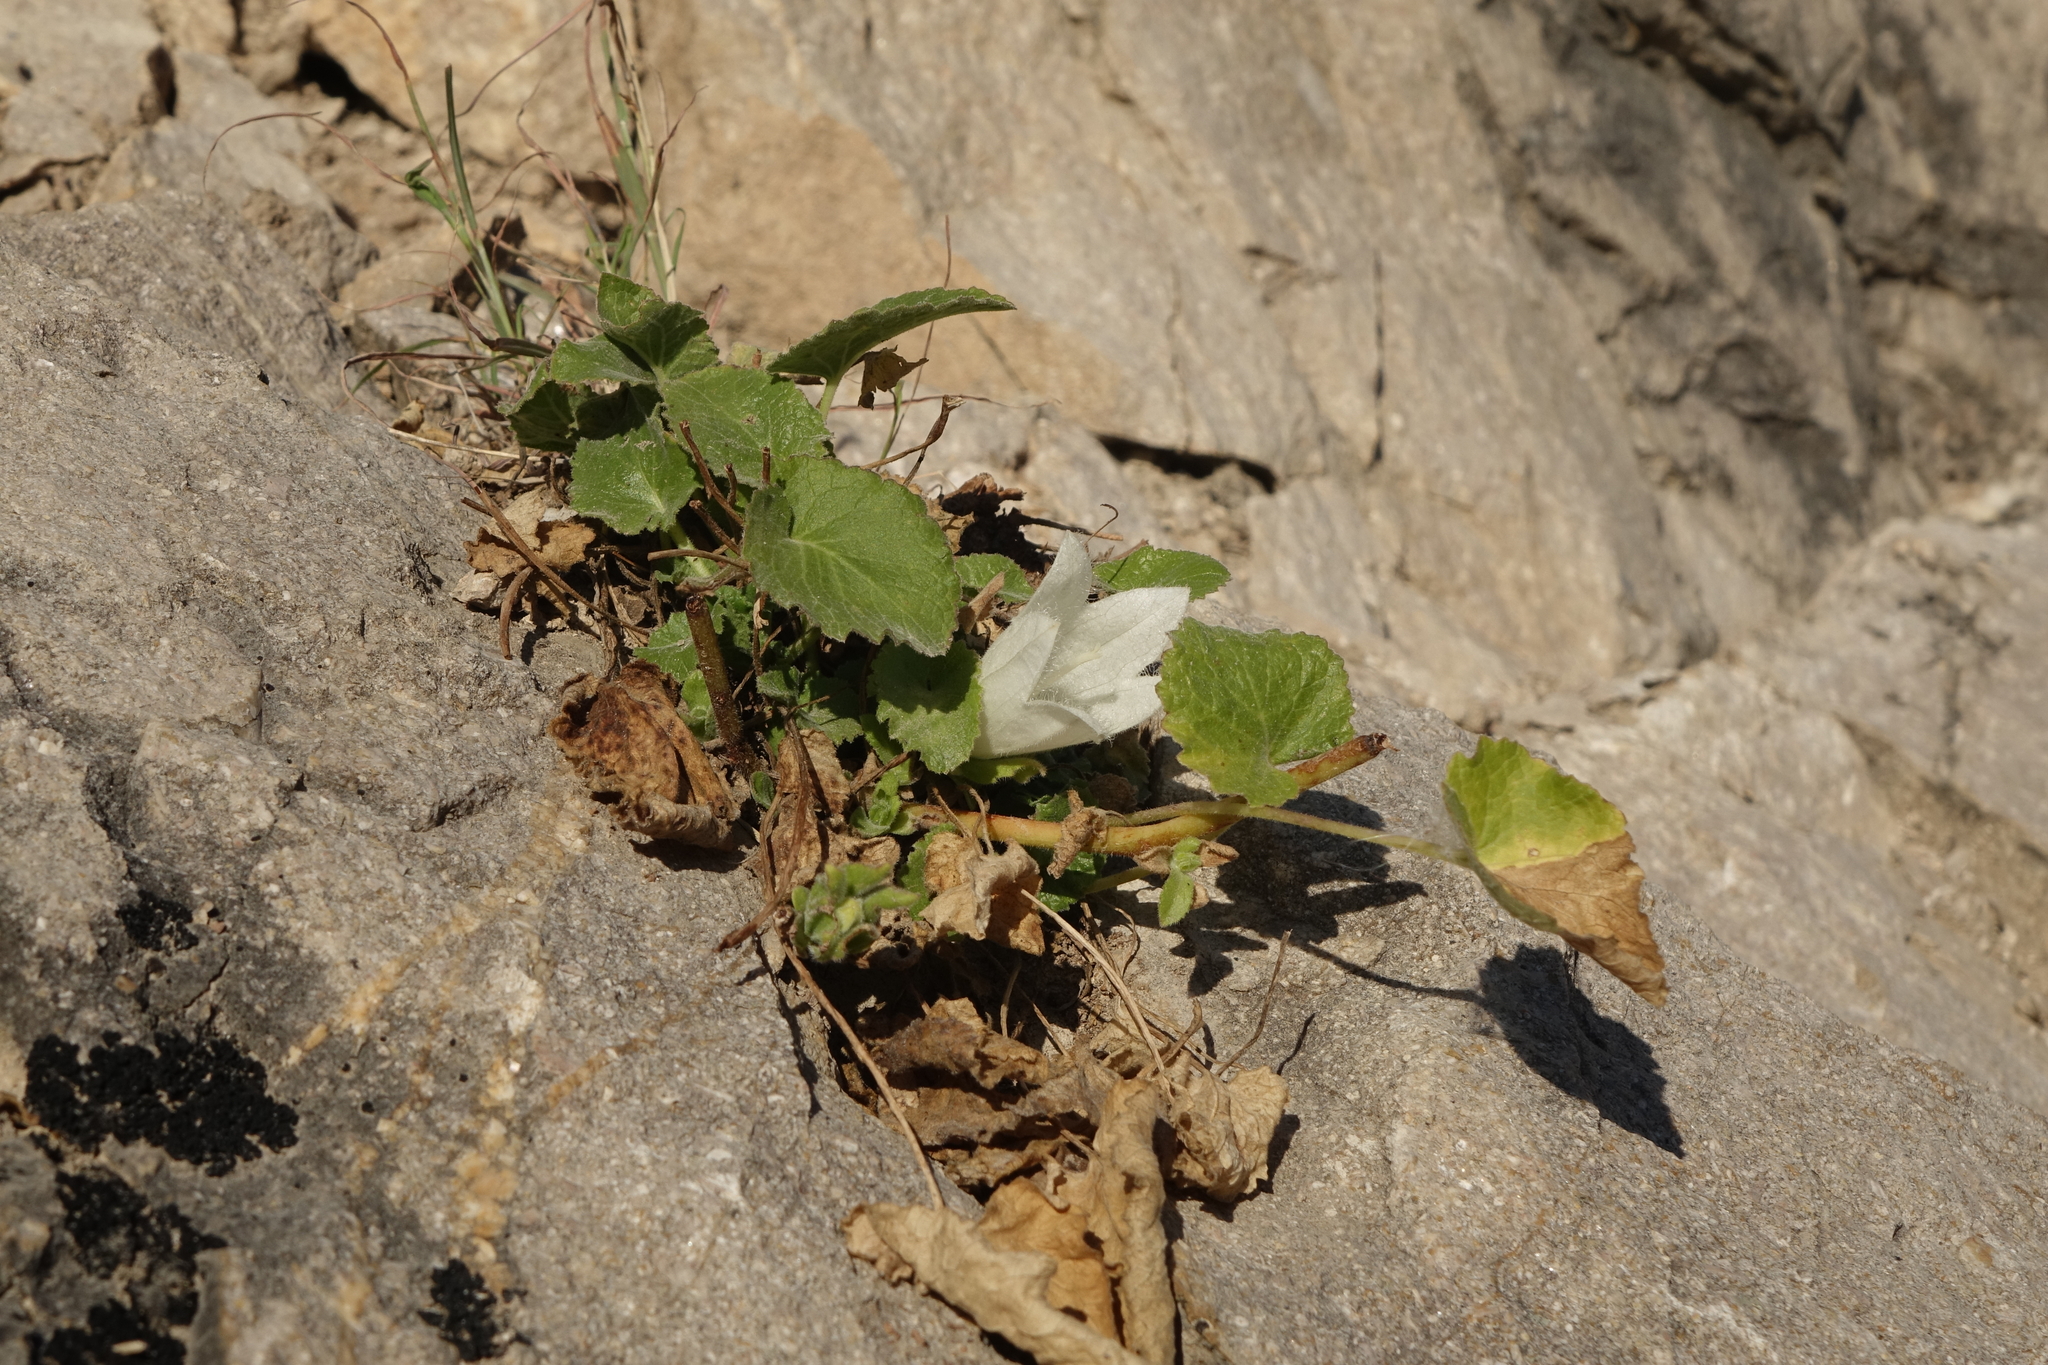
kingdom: Plantae
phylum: Tracheophyta
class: Magnoliopsida
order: Asterales
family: Campanulaceae
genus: Campanula
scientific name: Campanula pendula
